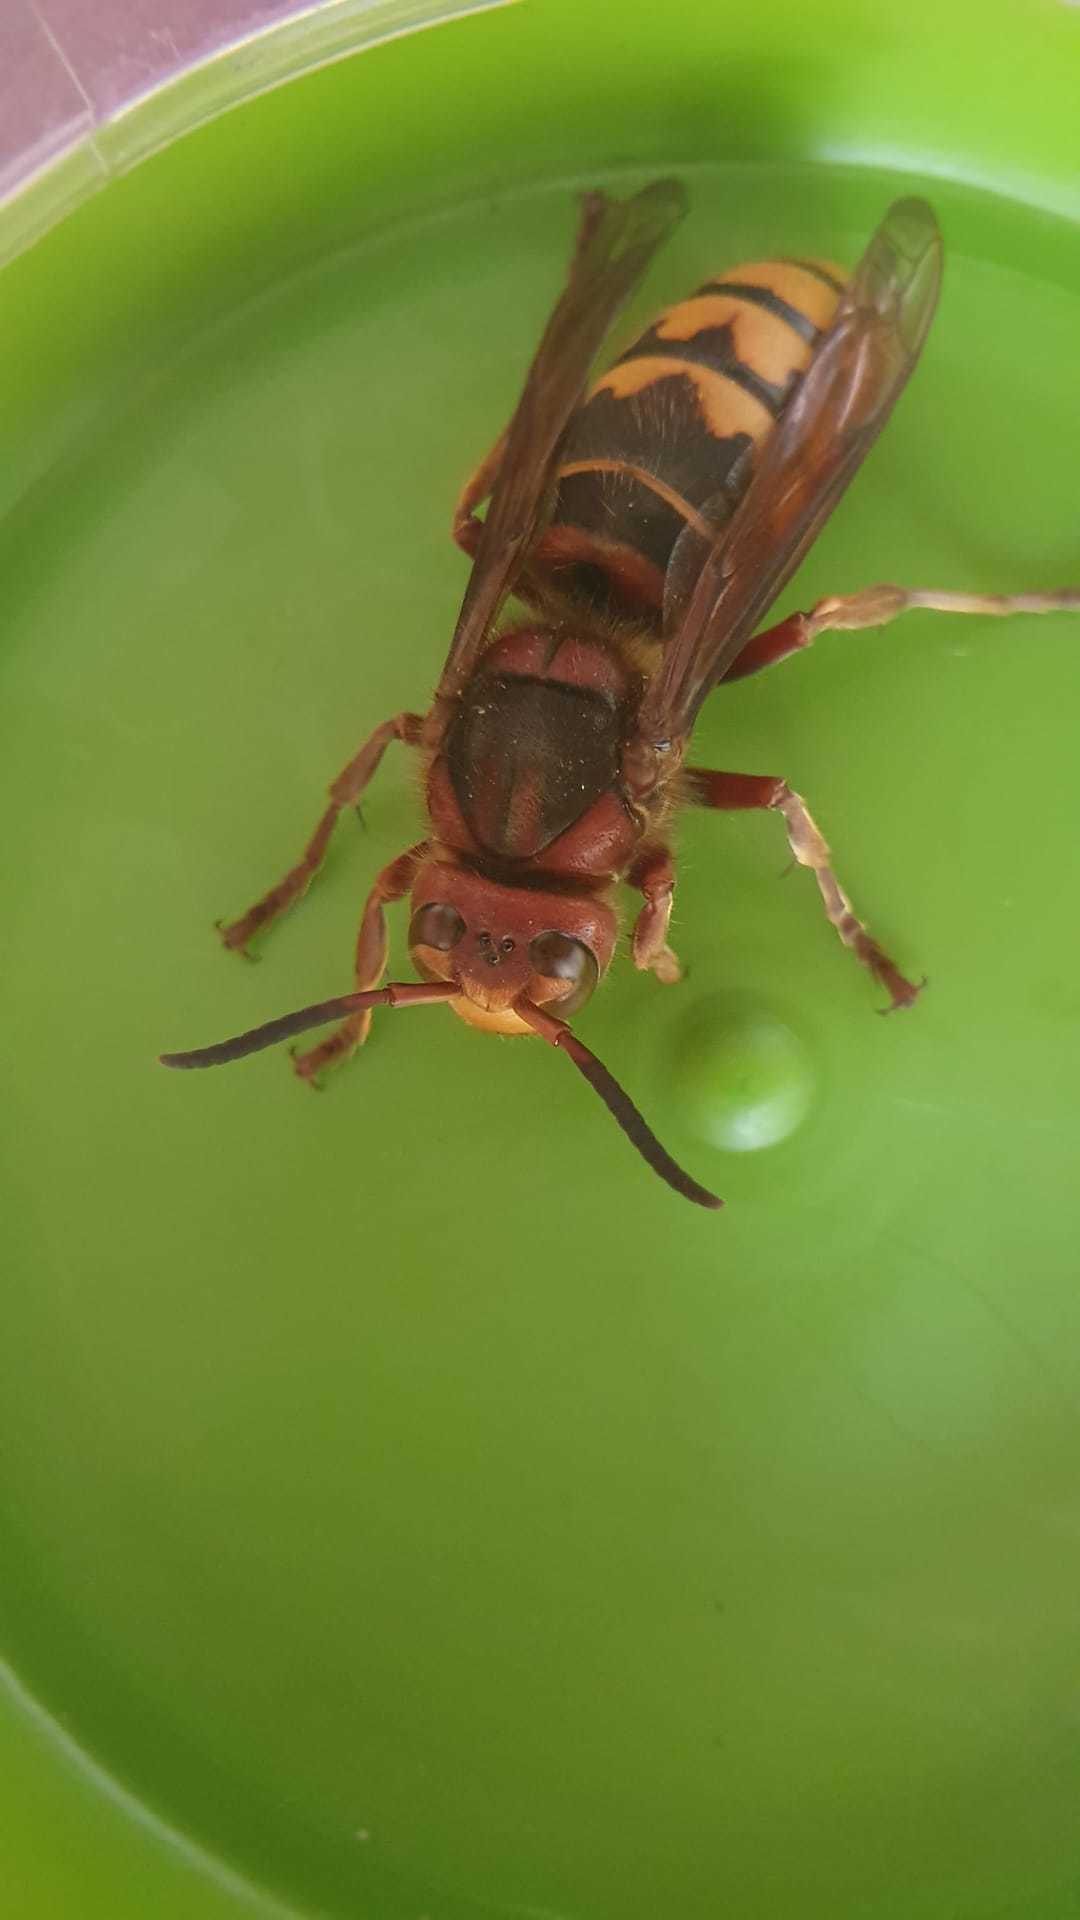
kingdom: Animalia
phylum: Arthropoda
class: Insecta
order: Hymenoptera
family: Vespidae
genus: Vespa
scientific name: Vespa crabro
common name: Hornet
